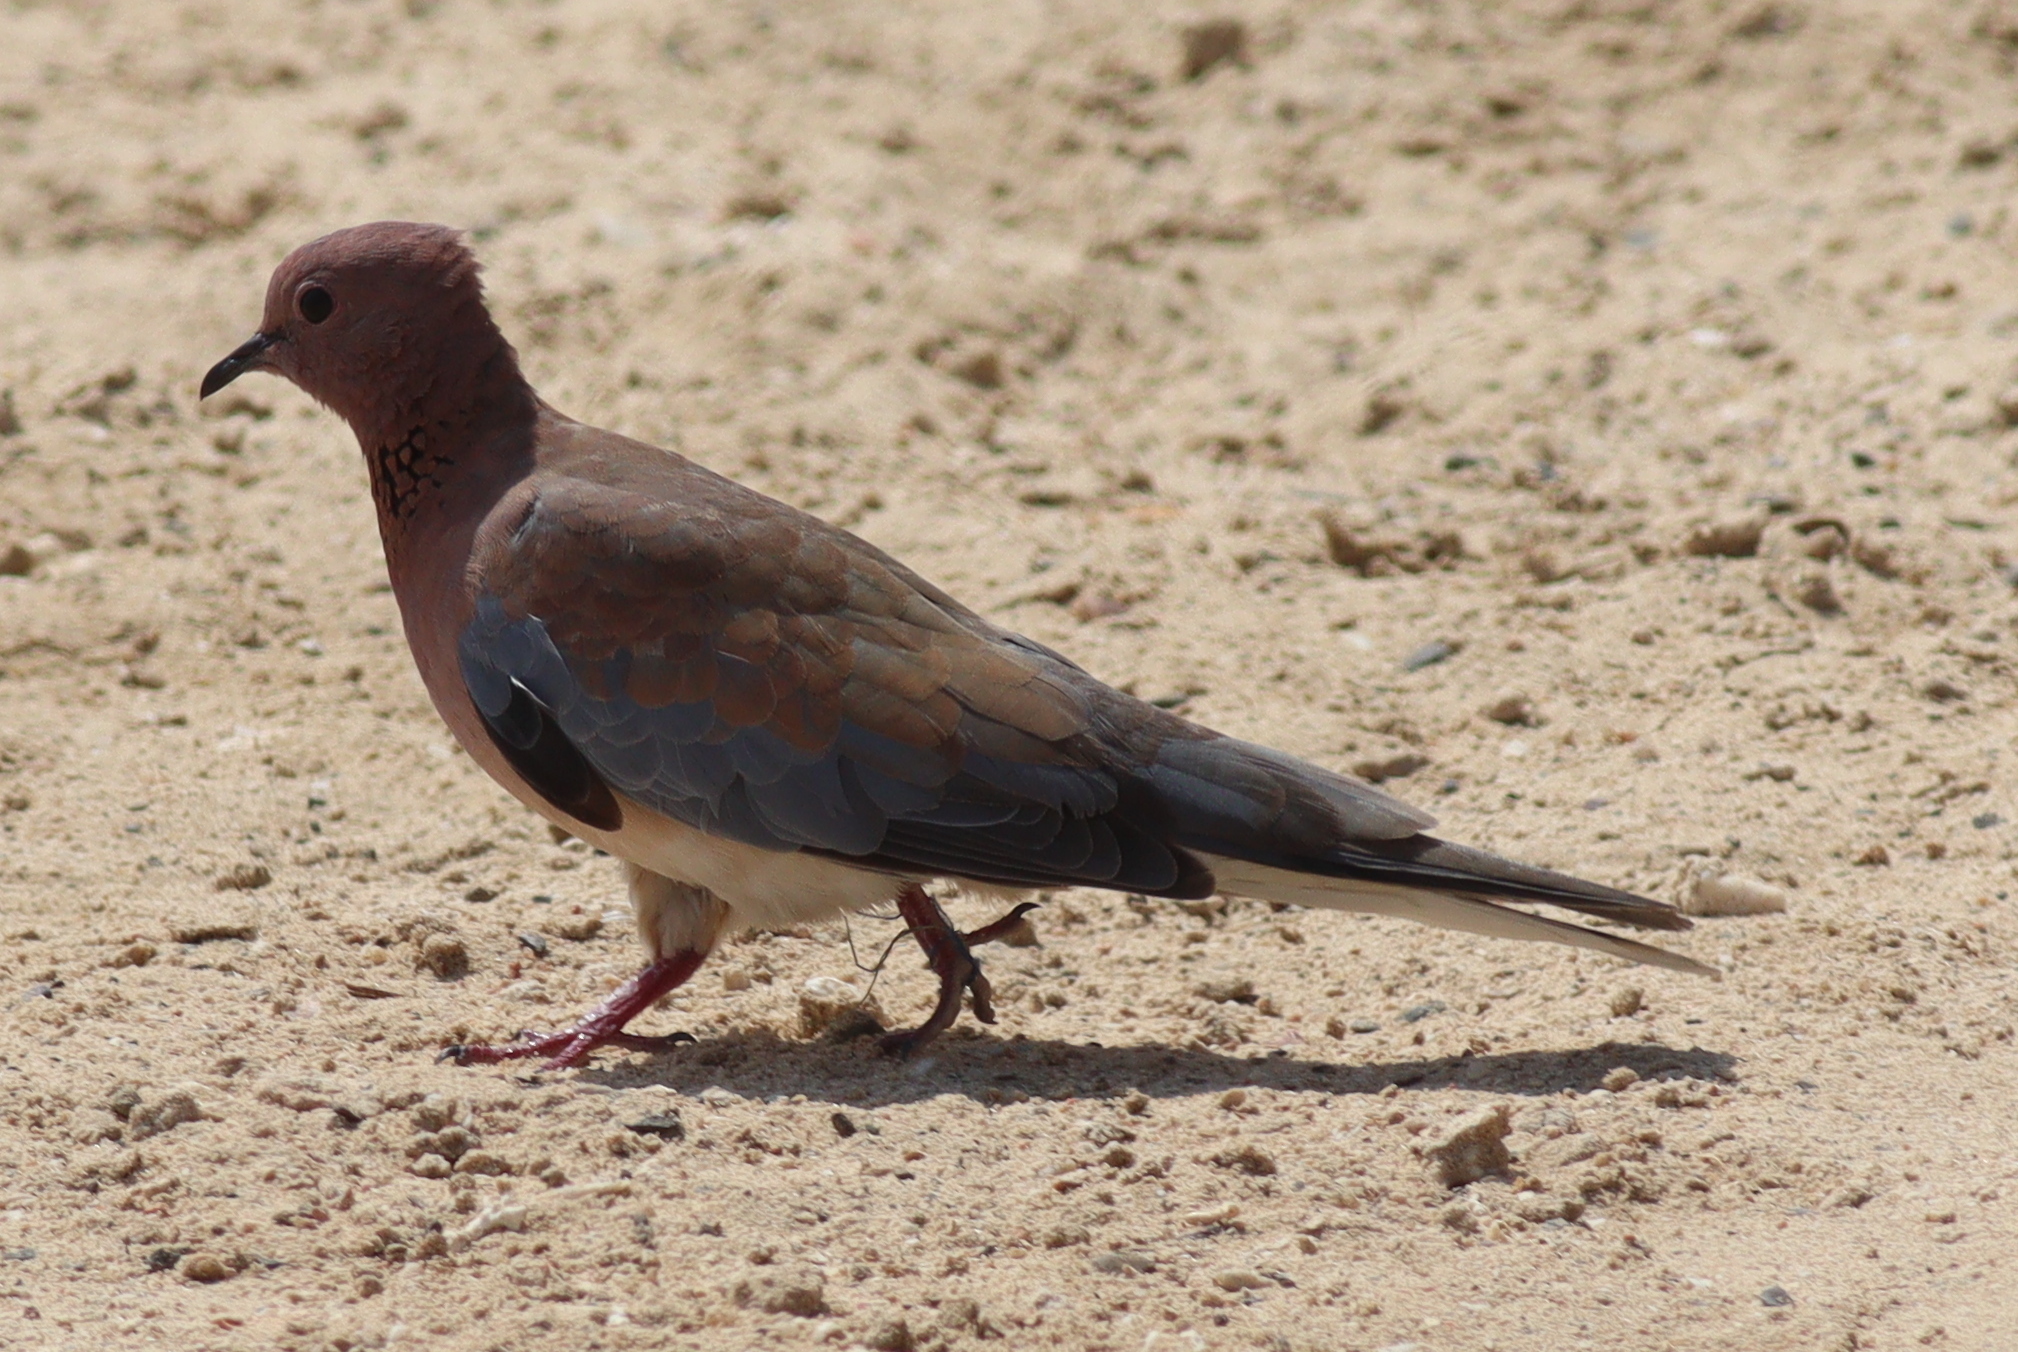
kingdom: Animalia
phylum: Chordata
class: Aves
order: Columbiformes
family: Columbidae
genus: Spilopelia
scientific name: Spilopelia senegalensis
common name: Laughing dove
